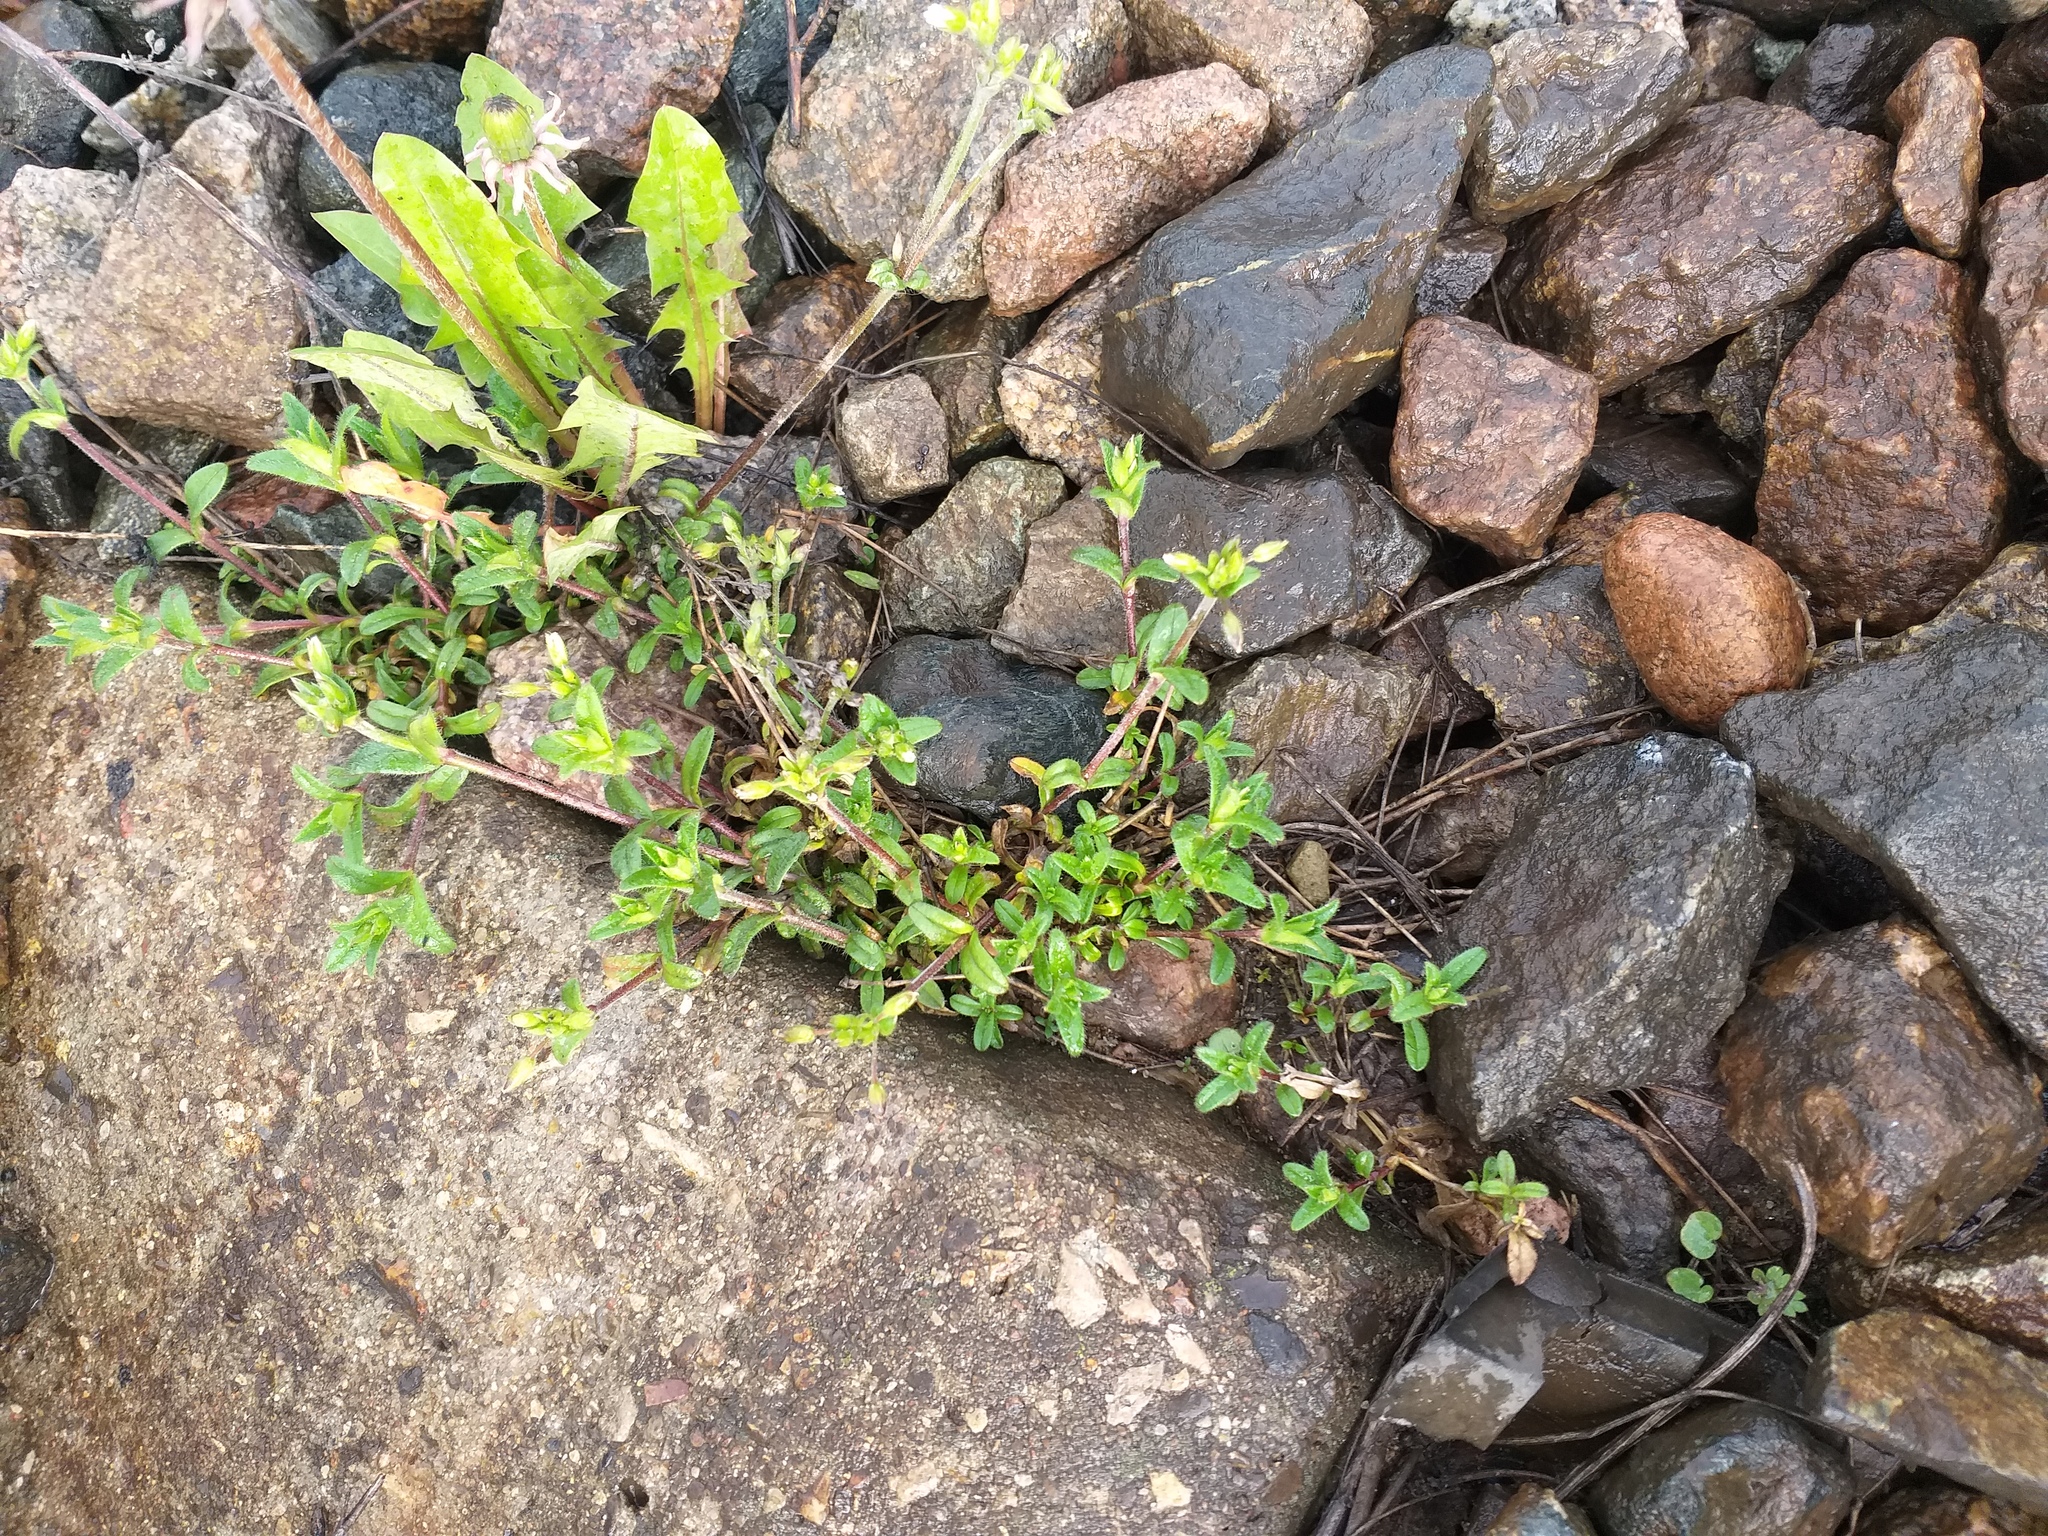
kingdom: Plantae
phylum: Tracheophyta
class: Magnoliopsida
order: Caryophyllales
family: Caryophyllaceae
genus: Cerastium
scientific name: Cerastium holosteoides
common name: Big chickweed
